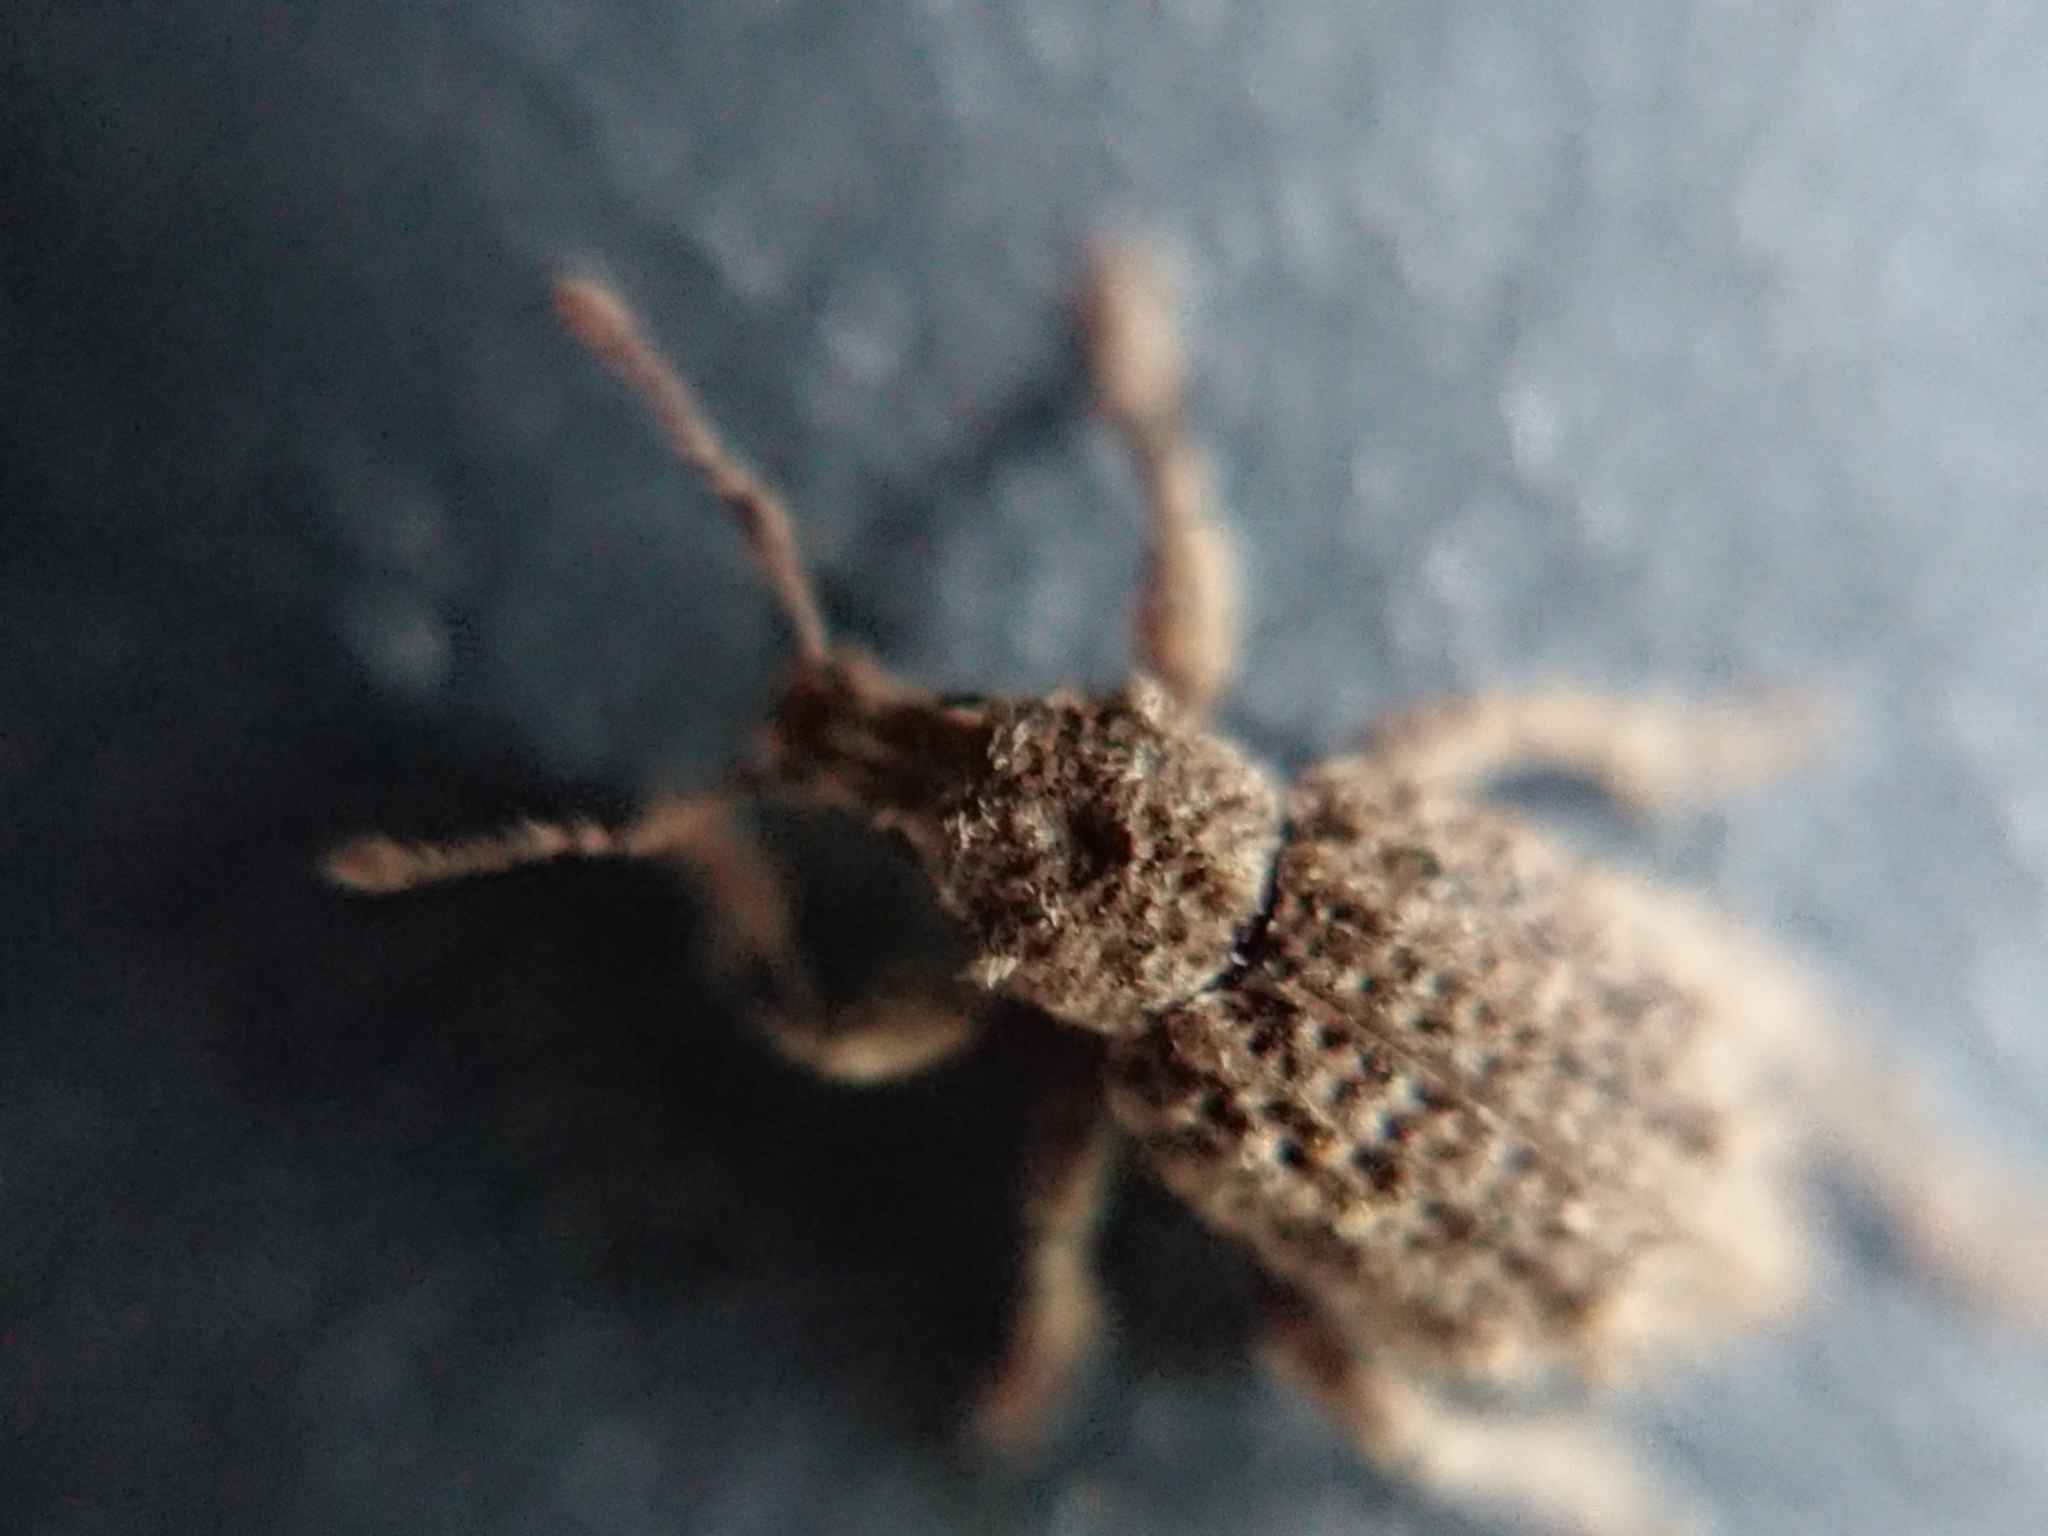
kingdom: Animalia
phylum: Arthropoda
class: Insecta
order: Coleoptera
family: Curculionidae
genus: Epitimetes
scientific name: Epitimetes grisealis
